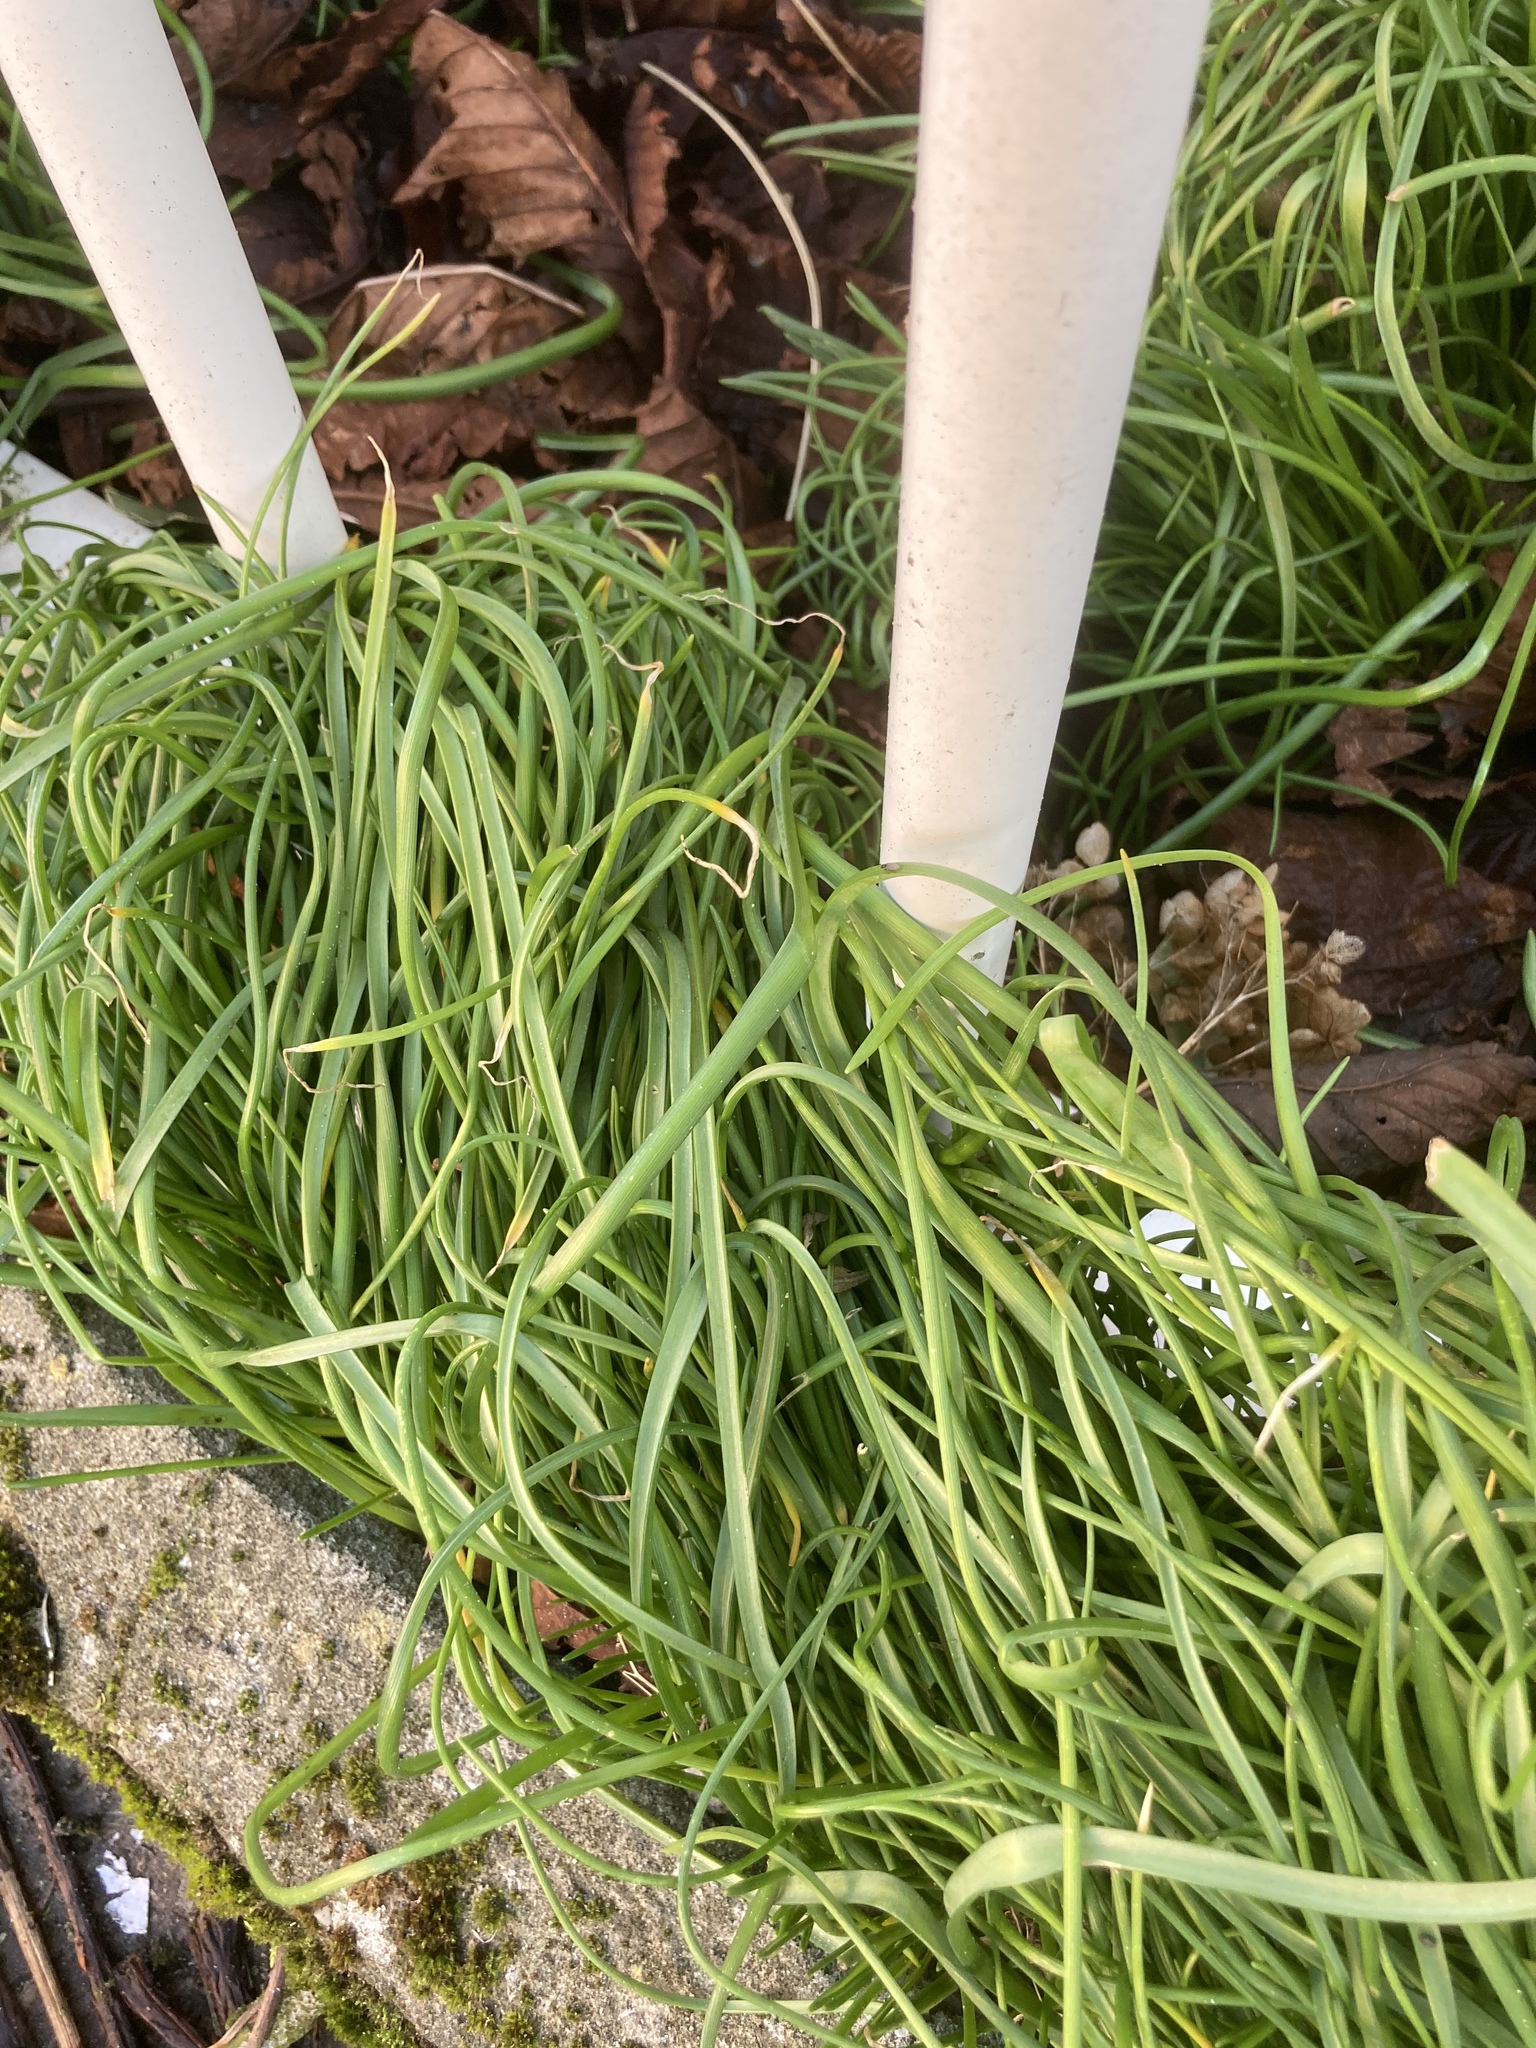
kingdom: Plantae
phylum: Tracheophyta
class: Liliopsida
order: Asparagales
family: Asparagaceae
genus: Muscari
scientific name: Muscari armeniacum
